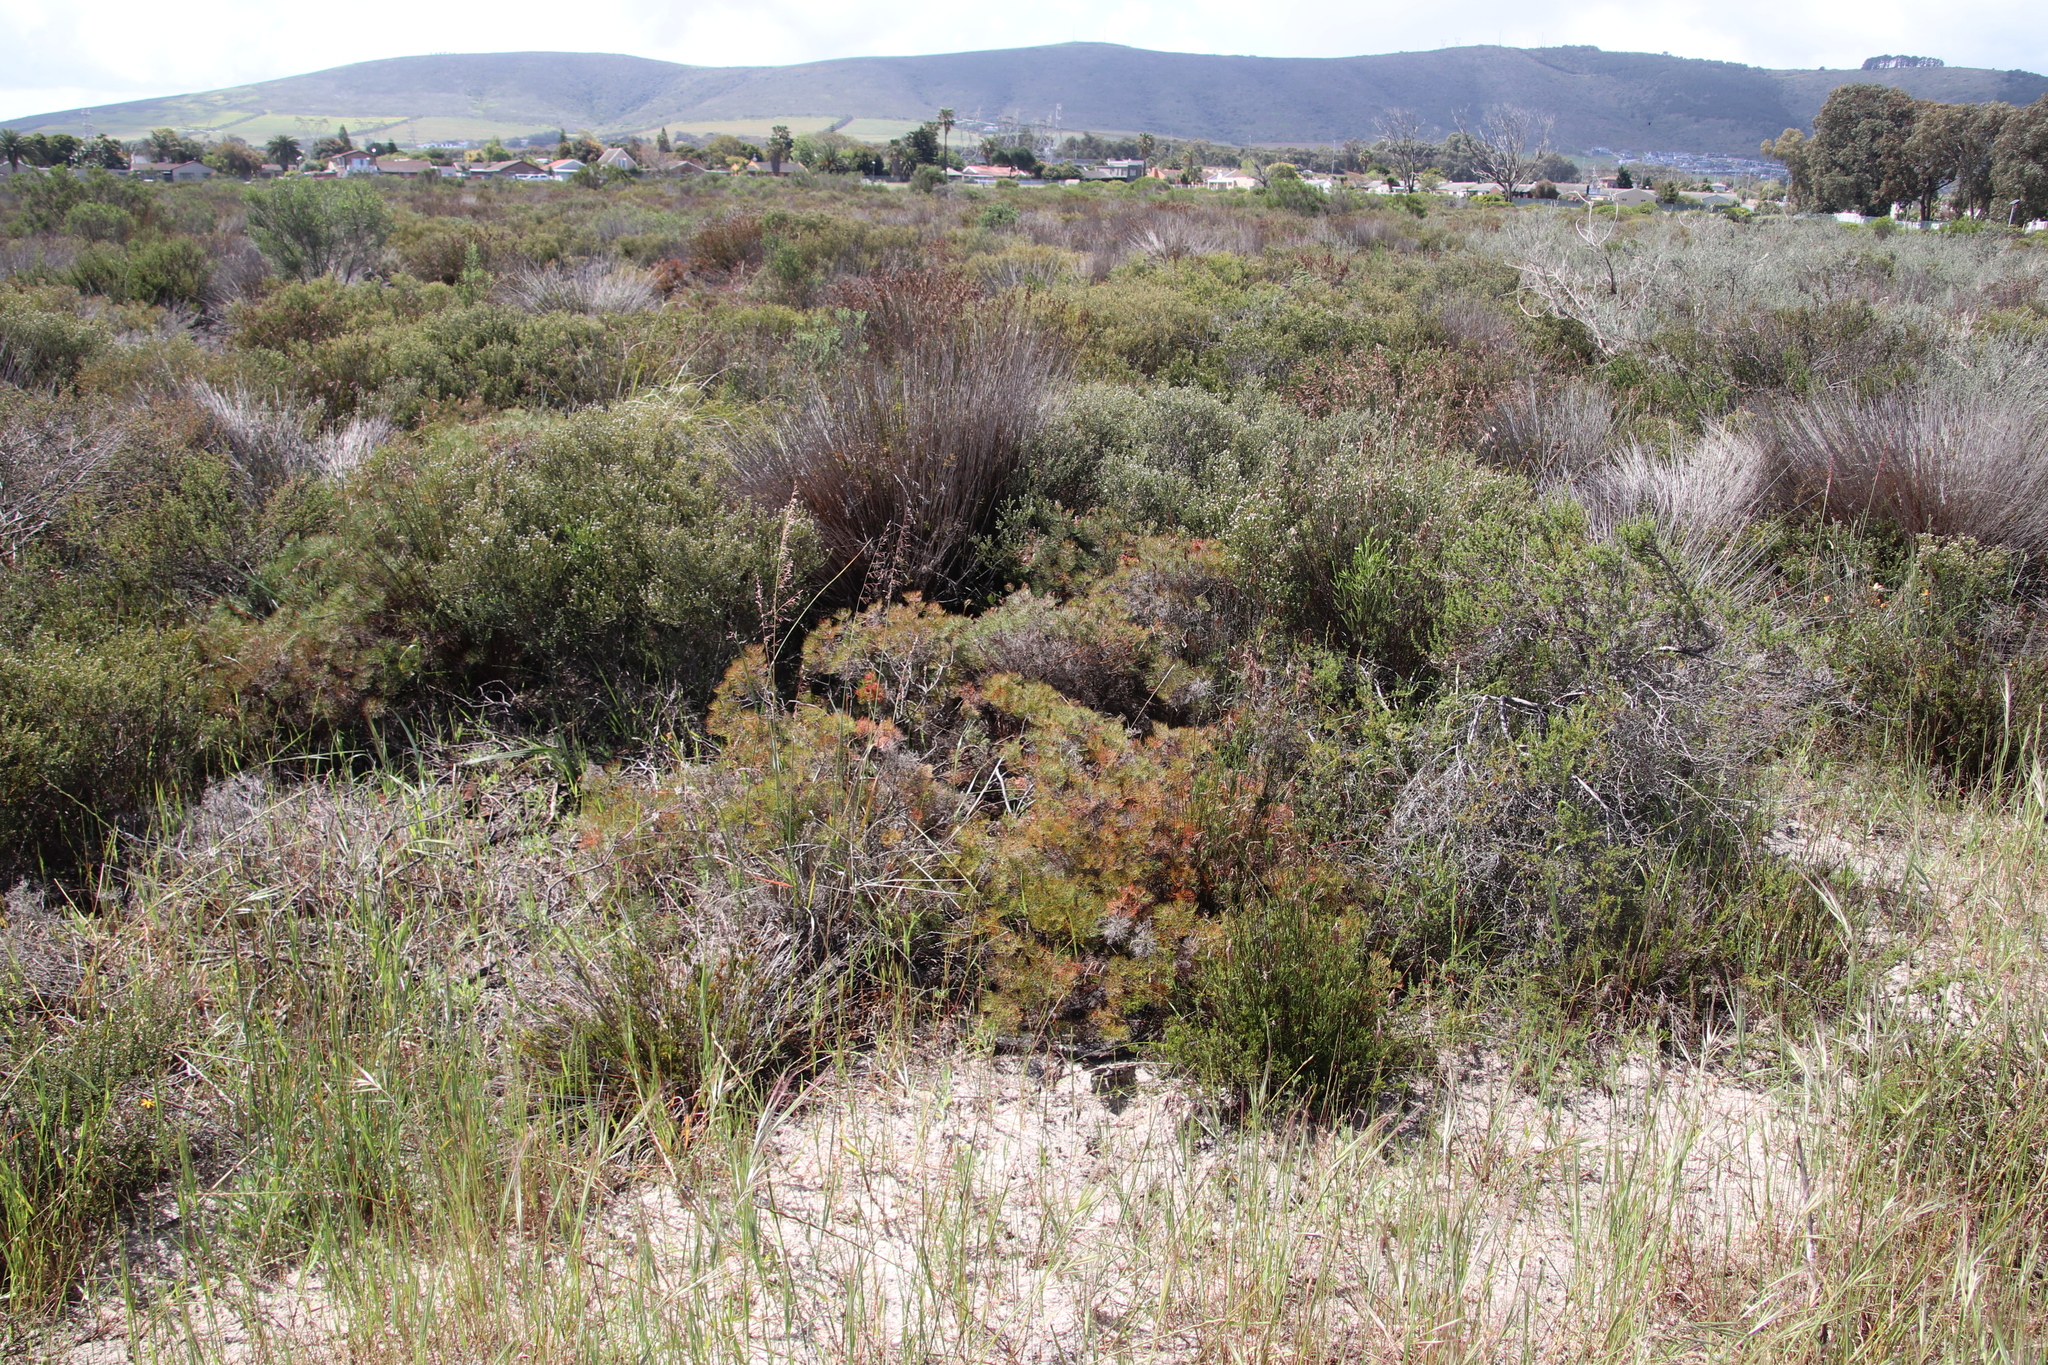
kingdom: Plantae
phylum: Tracheophyta
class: Magnoliopsida
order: Proteales
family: Proteaceae
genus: Serruria
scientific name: Serruria fasciflora
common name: Common pin spiderhead
